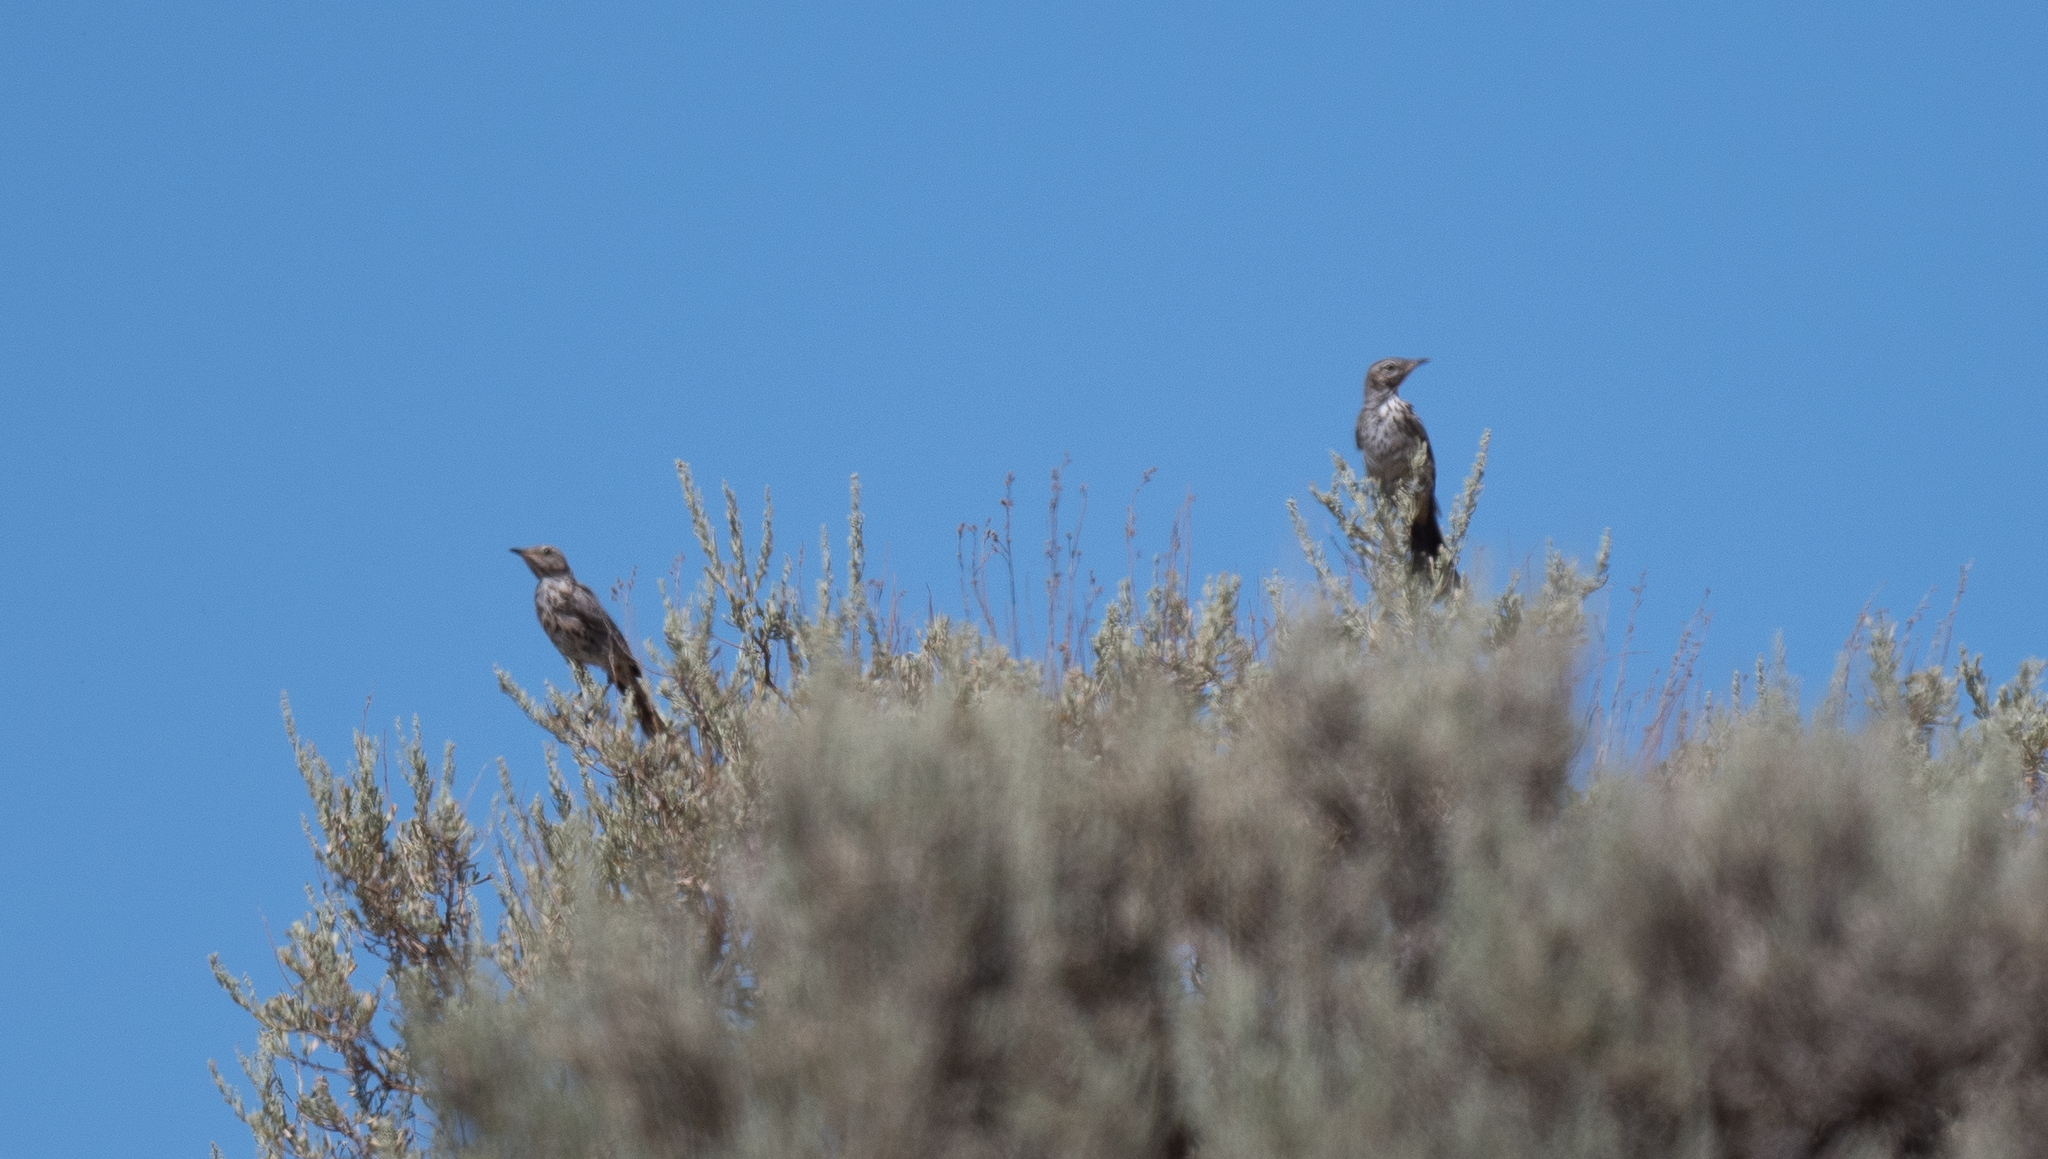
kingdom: Animalia
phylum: Chordata
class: Aves
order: Passeriformes
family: Mimidae
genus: Oreoscoptes
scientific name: Oreoscoptes montanus
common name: Sage thrasher
